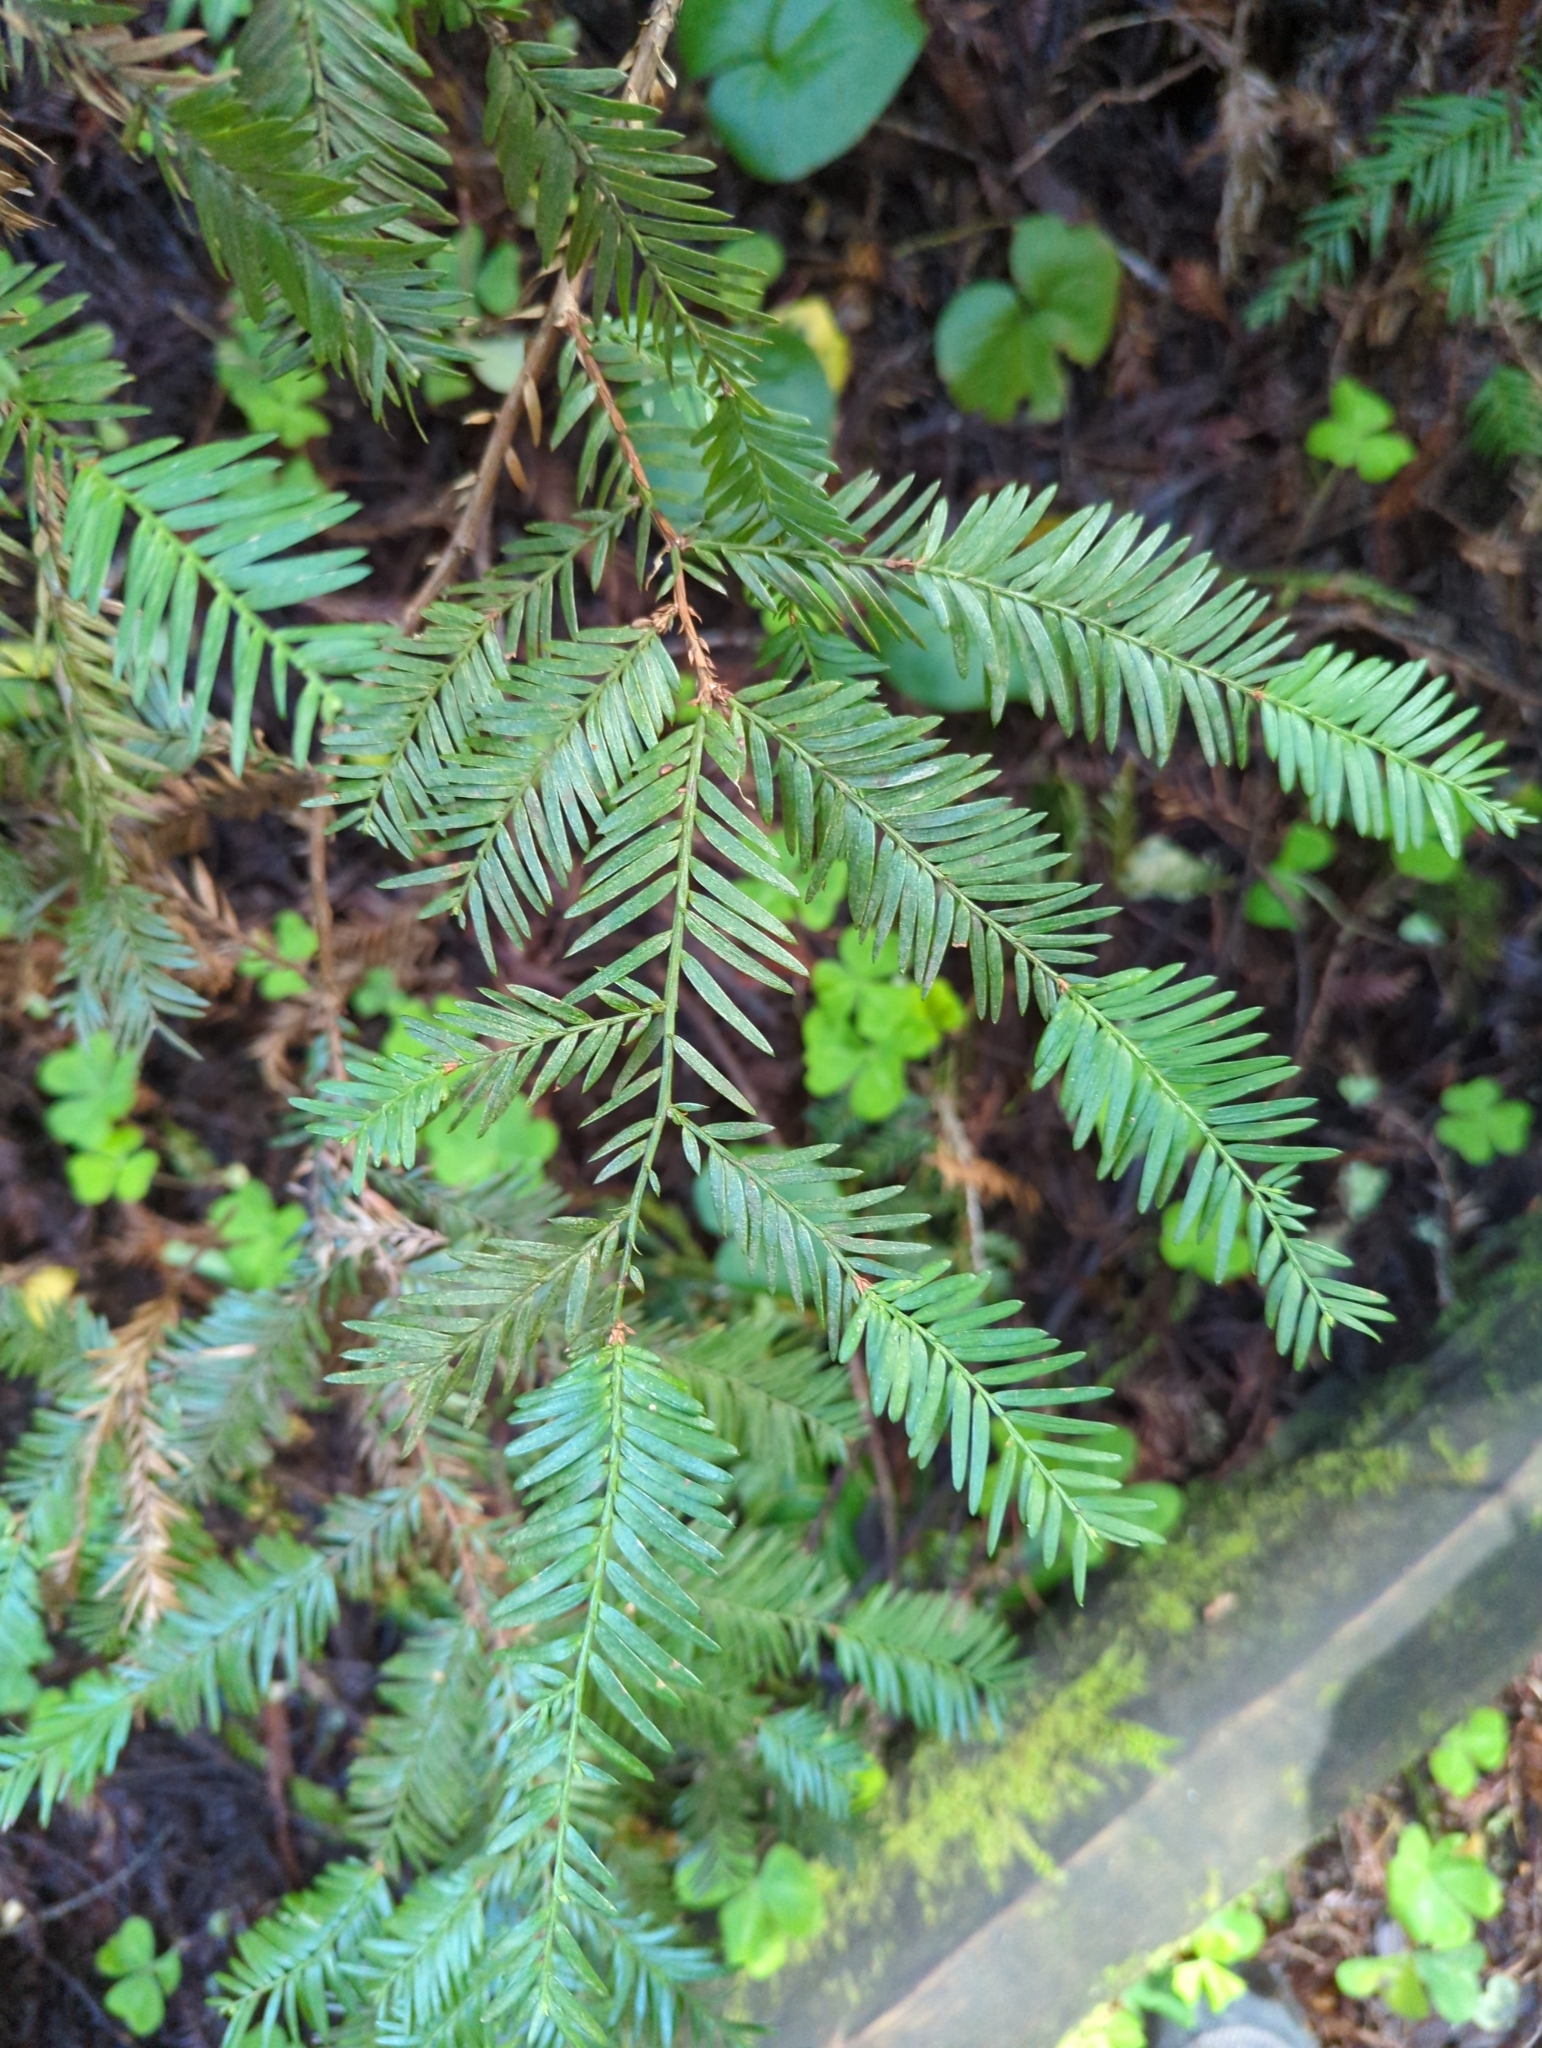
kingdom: Plantae
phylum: Tracheophyta
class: Pinopsida
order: Pinales
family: Cupressaceae
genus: Sequoia
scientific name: Sequoia sempervirens
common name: Coast redwood
